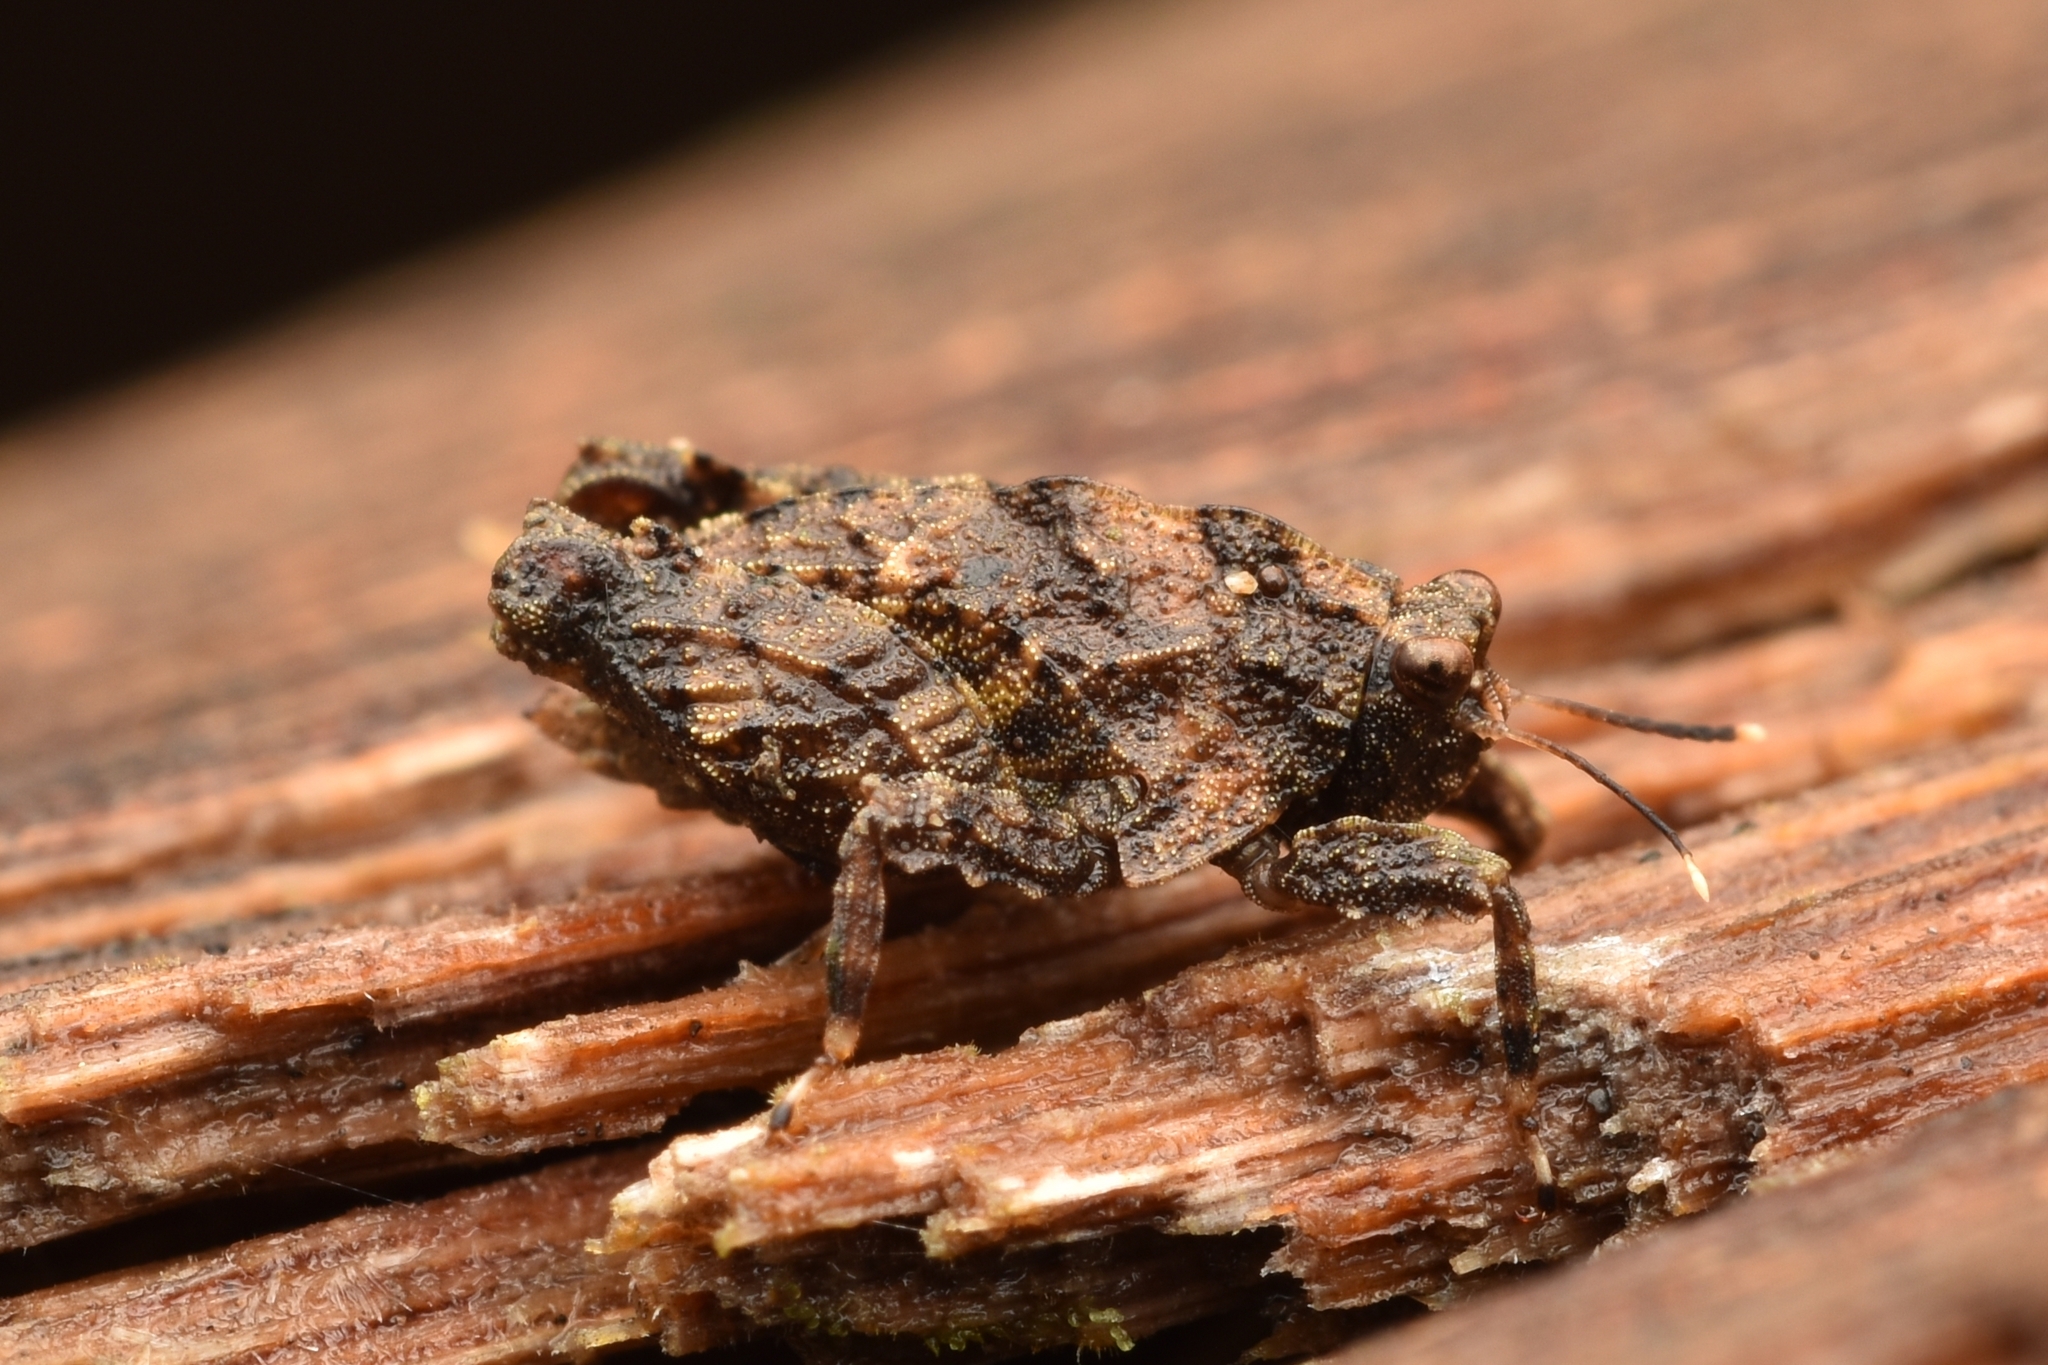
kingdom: Animalia
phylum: Arthropoda
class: Insecta
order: Orthoptera
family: Tetrigidae
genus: Metrodora
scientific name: Metrodora panamae
